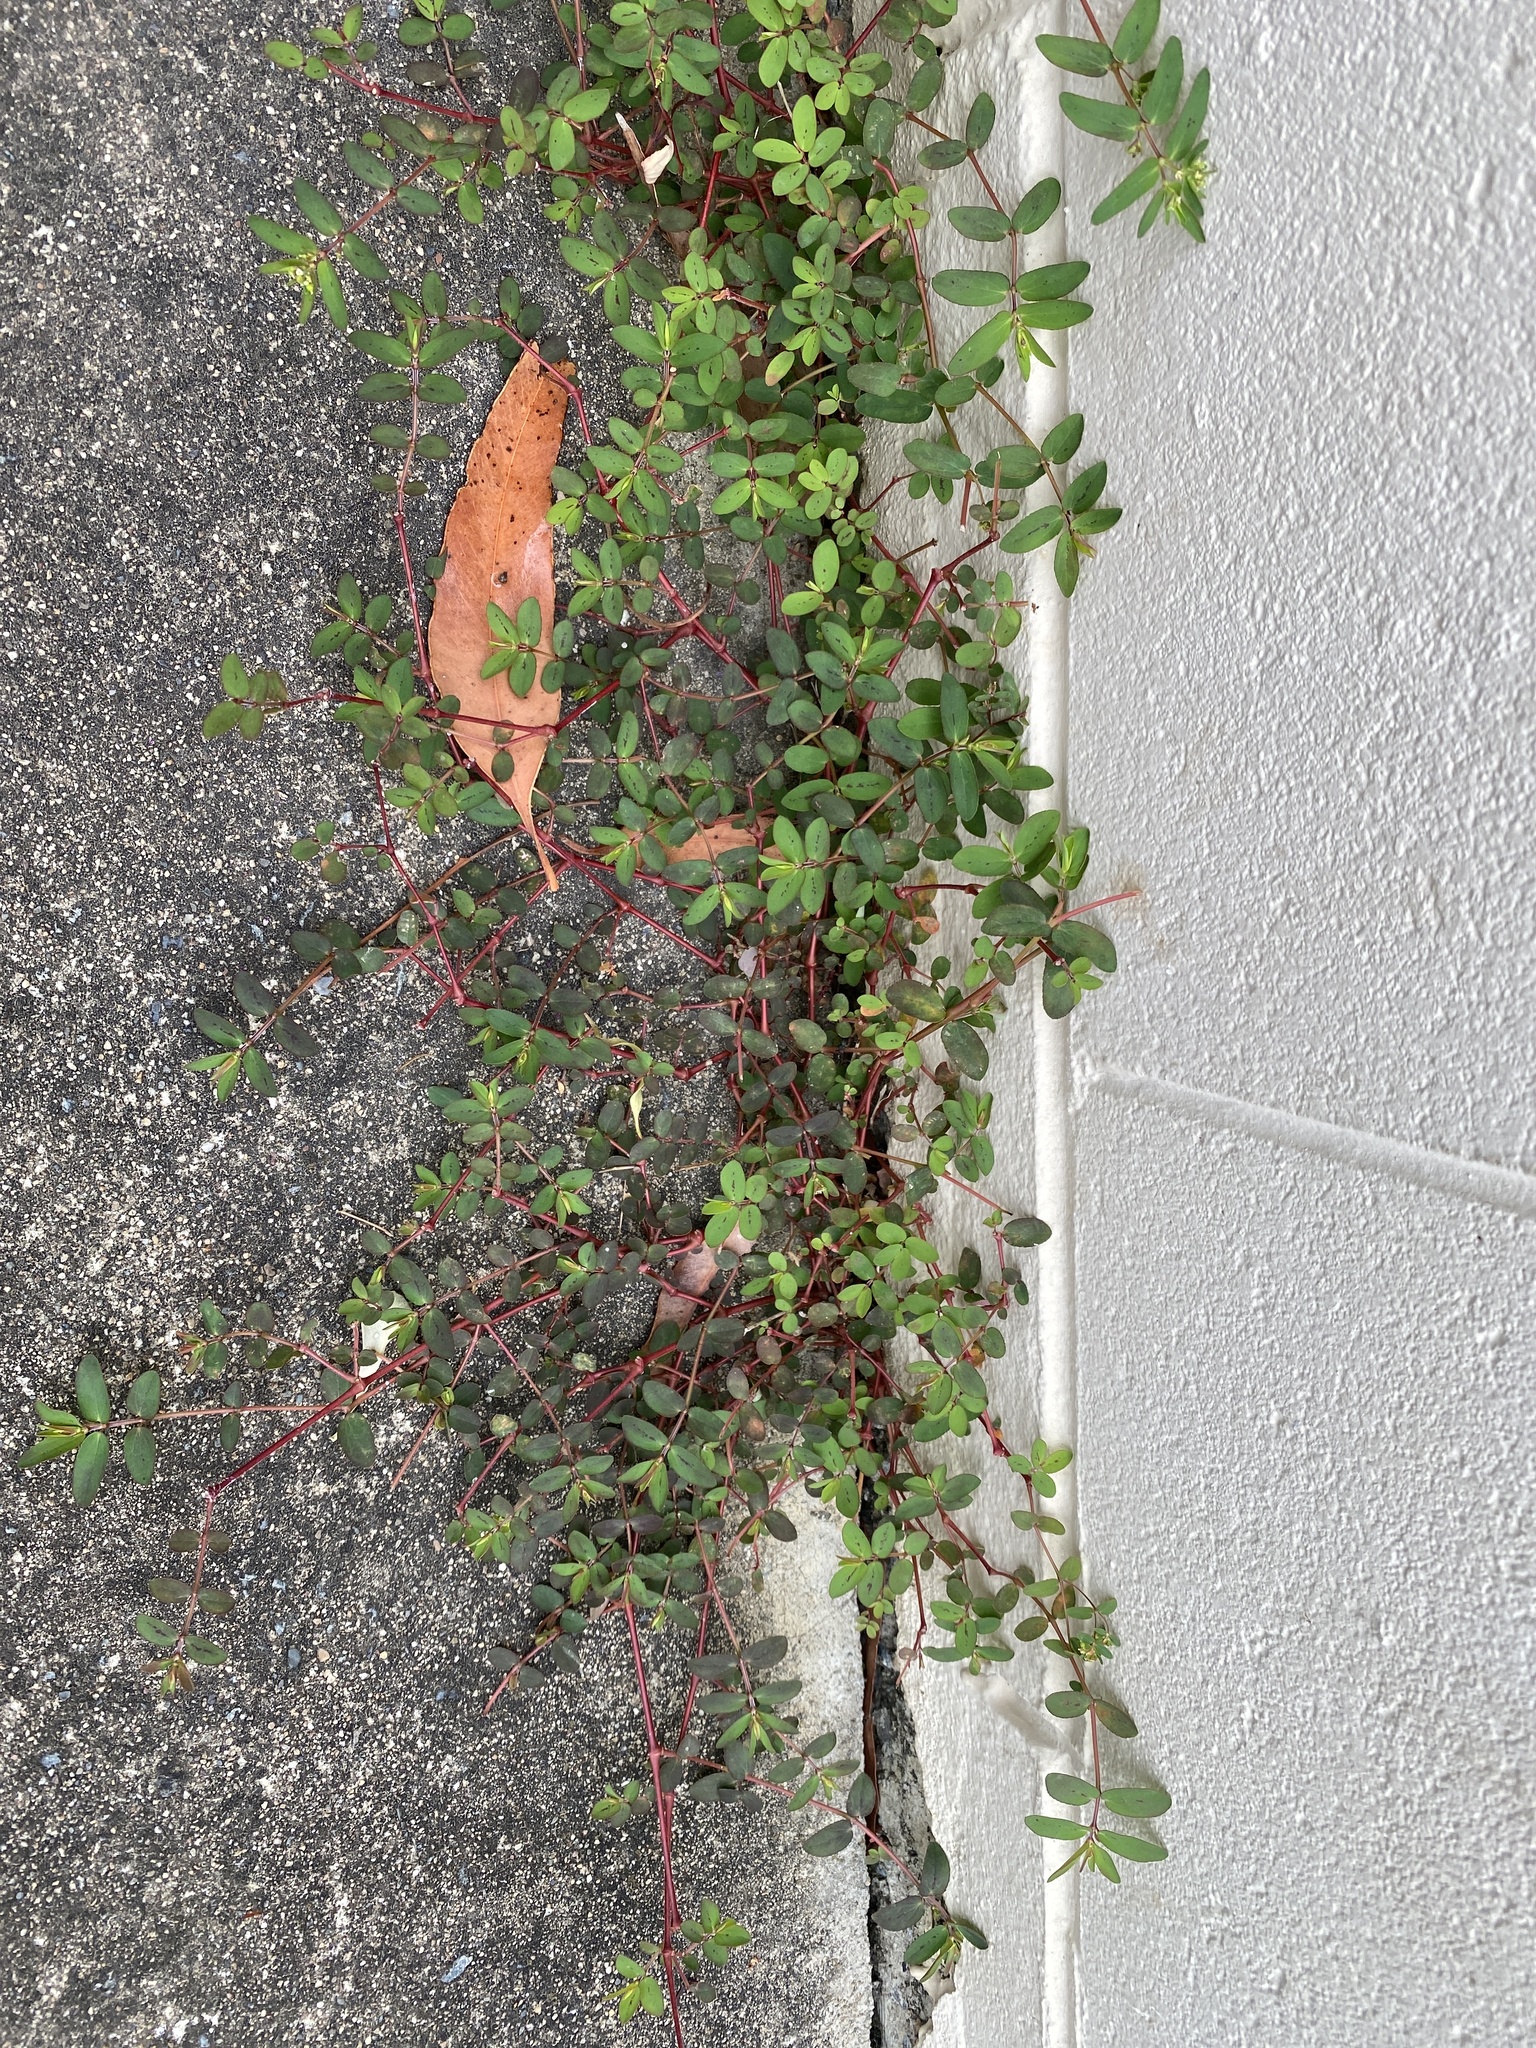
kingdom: Plantae
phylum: Tracheophyta
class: Magnoliopsida
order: Malpighiales
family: Euphorbiaceae
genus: Euphorbia
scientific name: Euphorbia hyssopifolia
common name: Hyssopleaf sandmat
